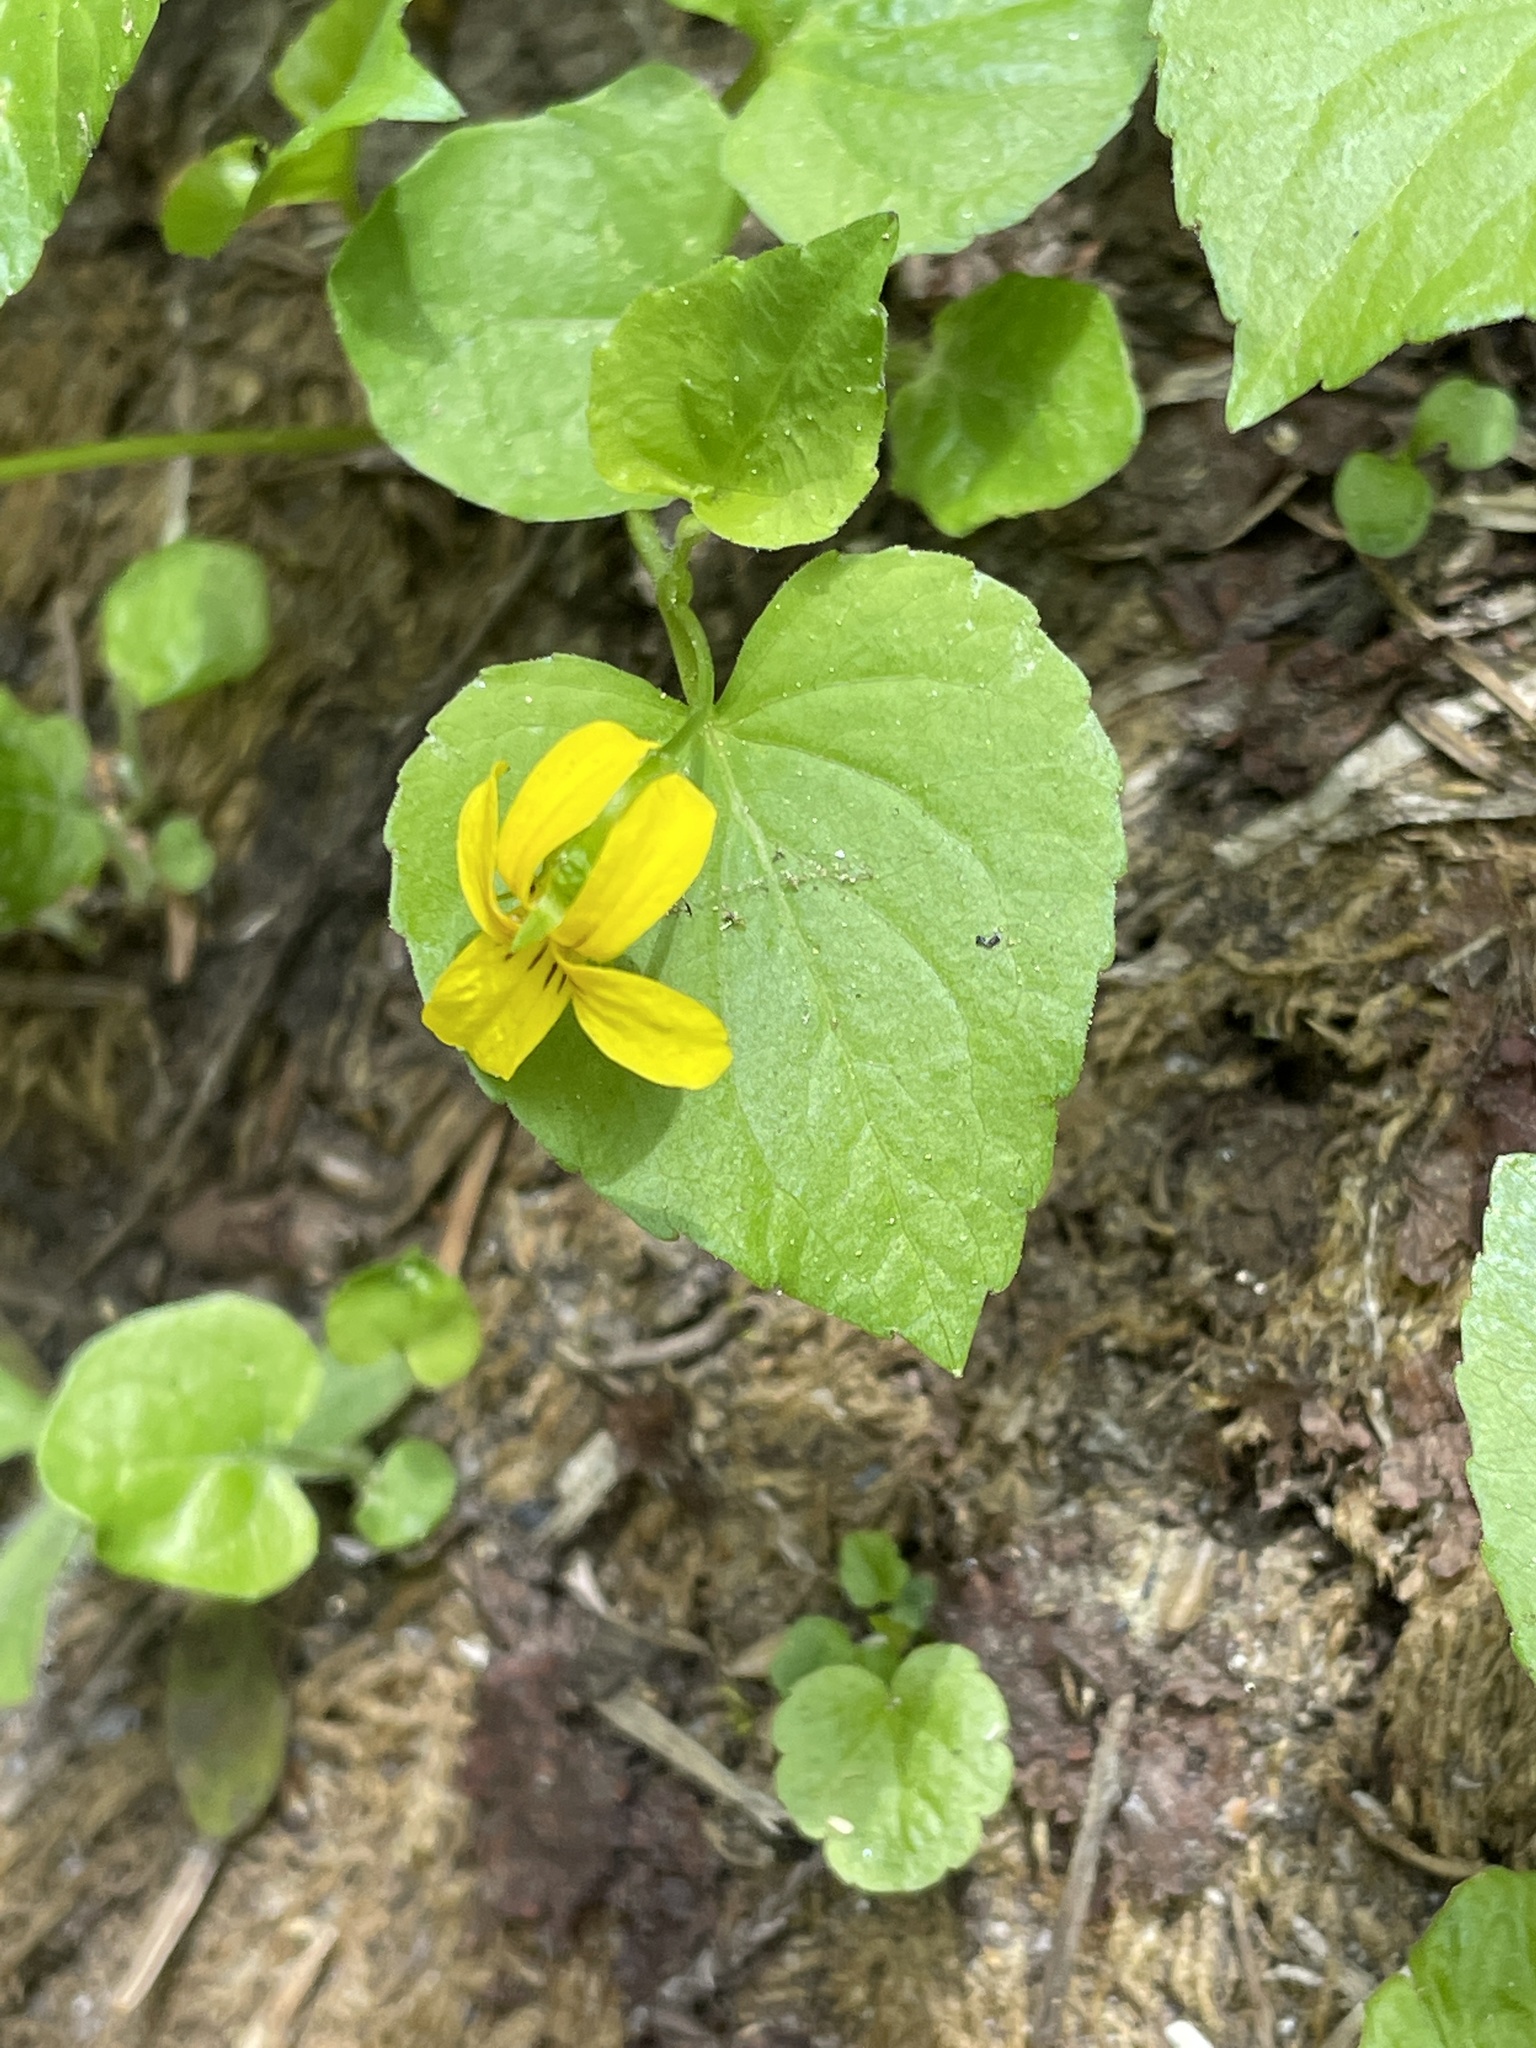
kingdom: Plantae
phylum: Tracheophyta
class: Magnoliopsida
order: Malpighiales
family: Violaceae
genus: Viola
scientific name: Viola glabella
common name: Stream violet
